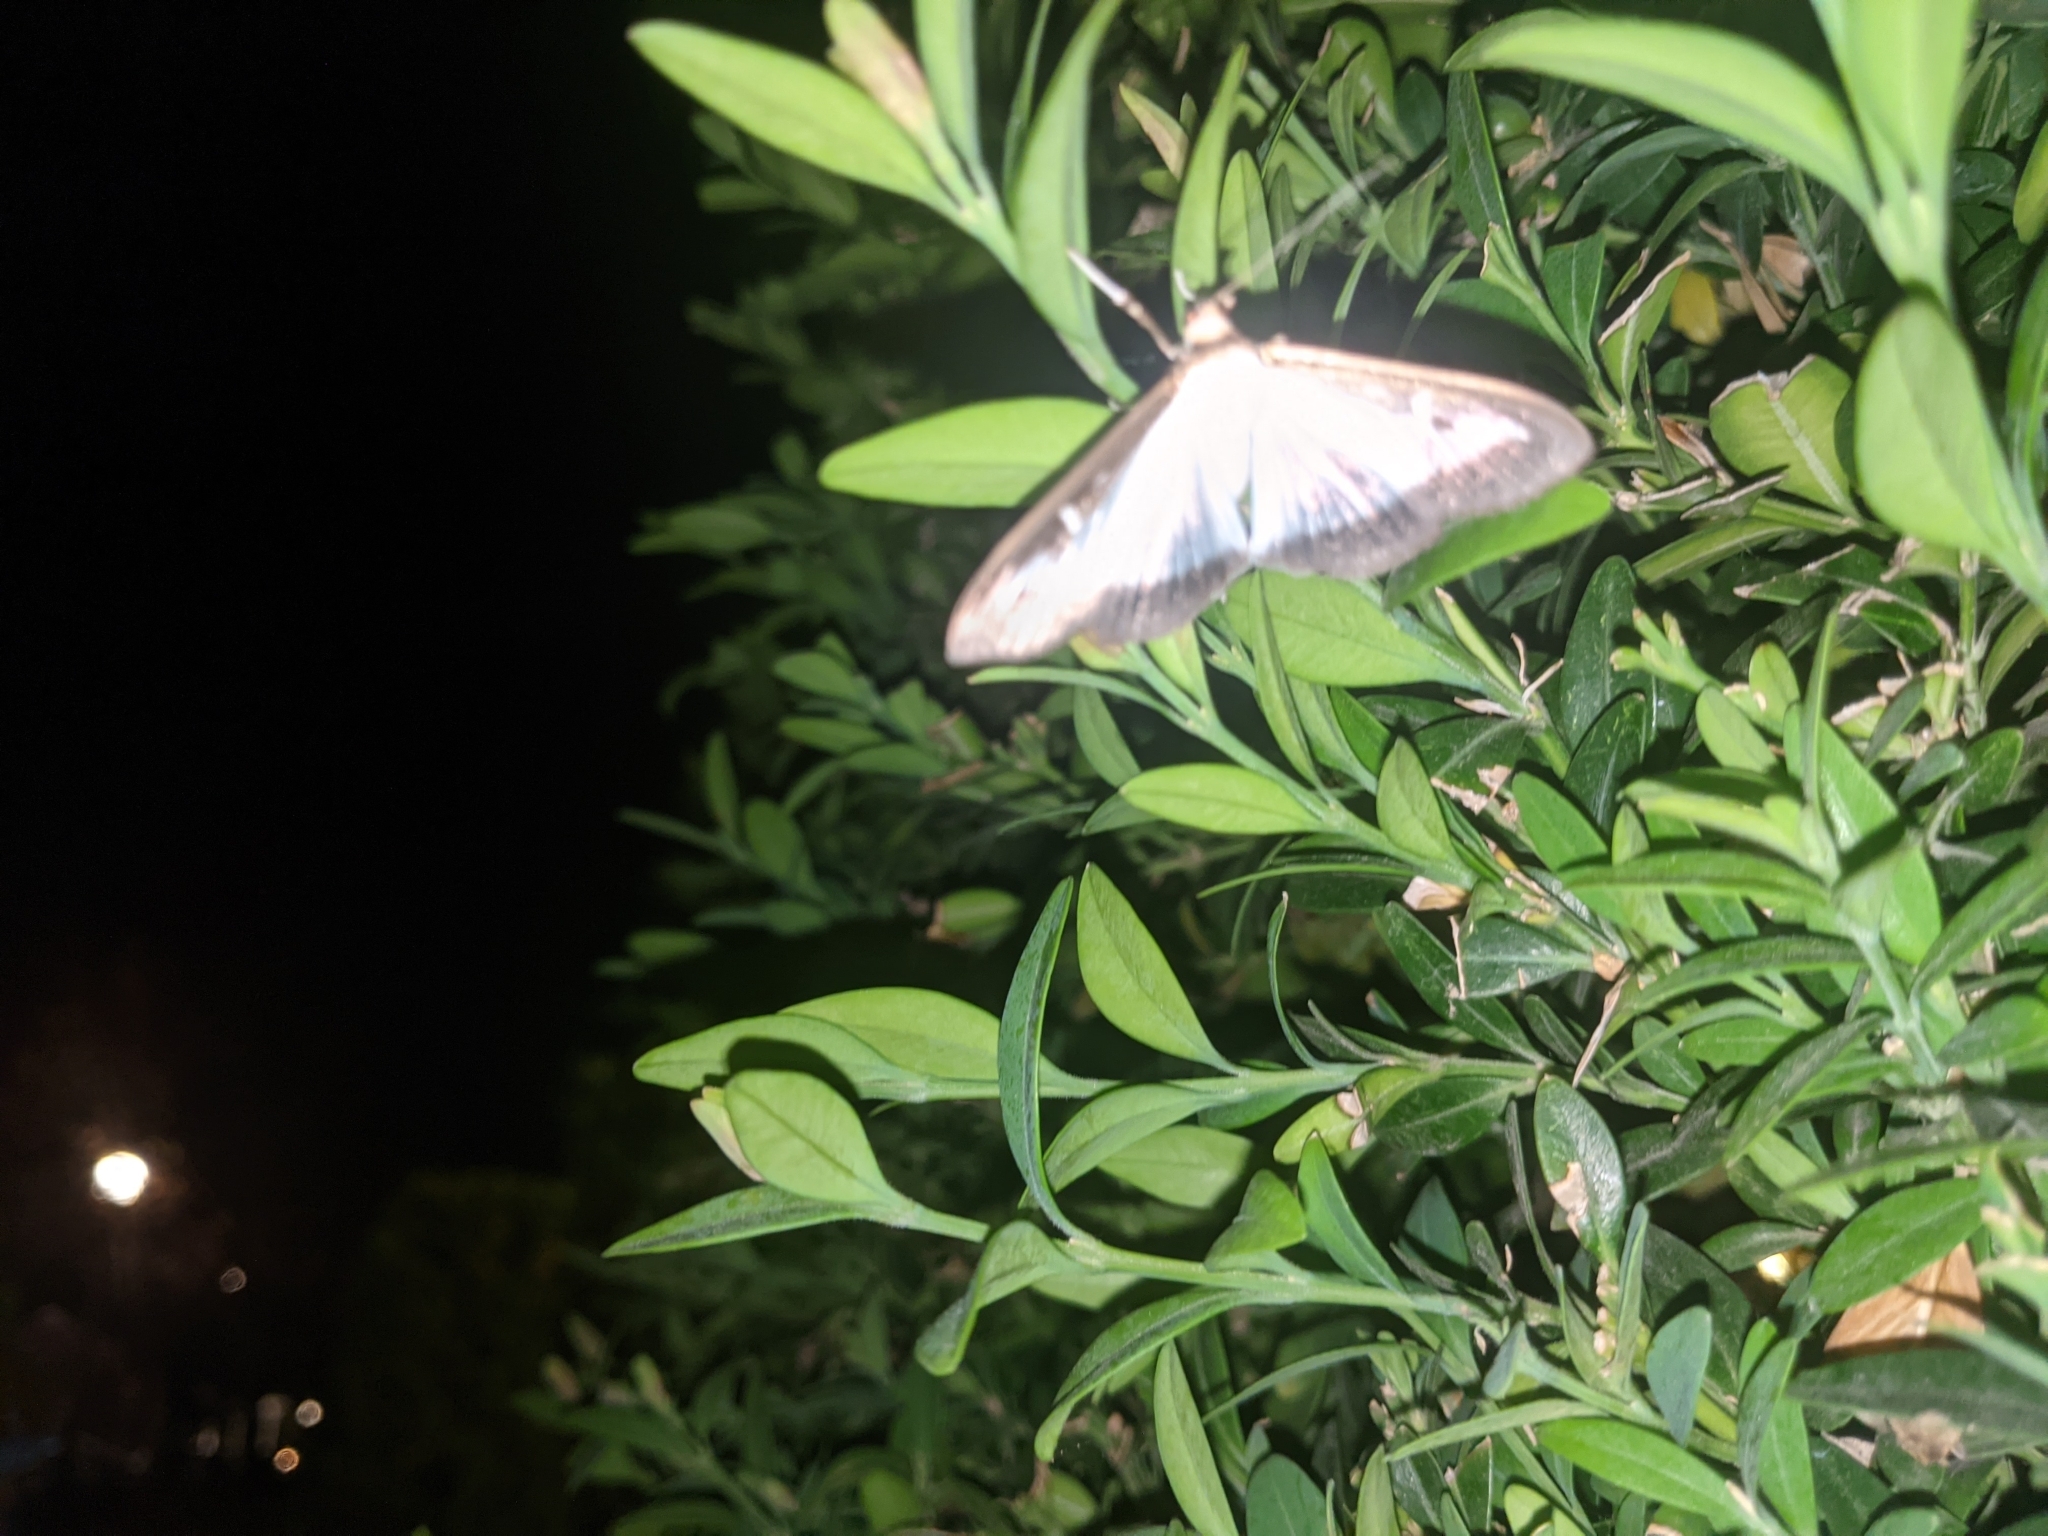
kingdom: Animalia
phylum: Arthropoda
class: Insecta
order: Lepidoptera
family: Crambidae
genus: Cydalima
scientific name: Cydalima perspectalis
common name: Box tree moth
